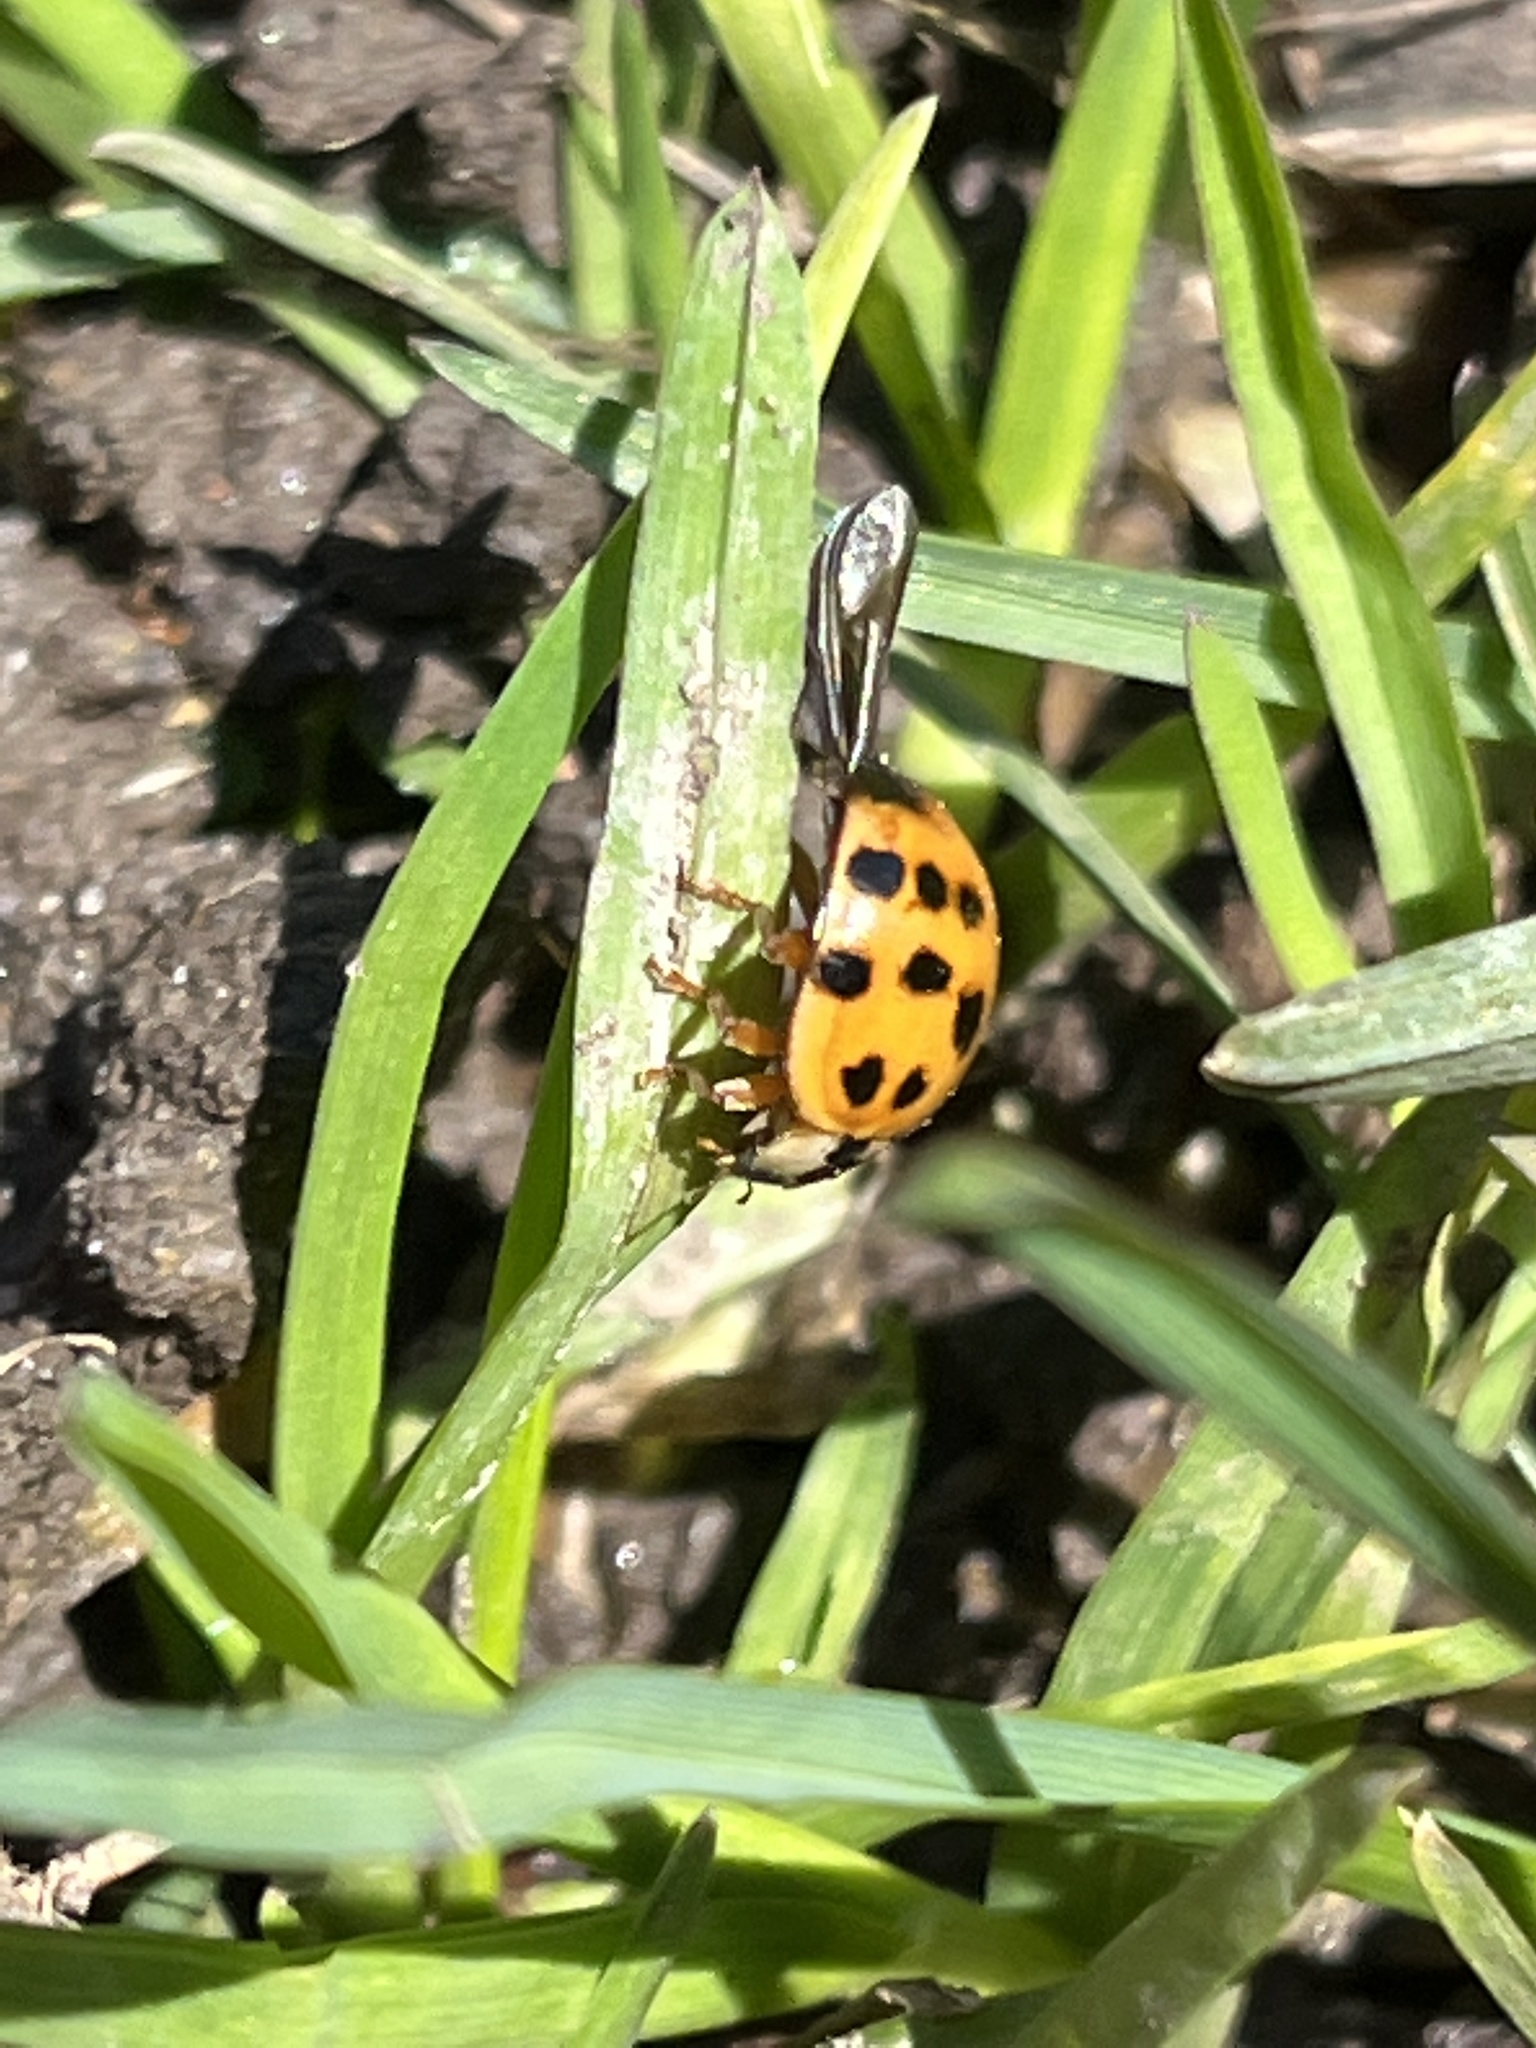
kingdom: Animalia
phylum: Arthropoda
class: Insecta
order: Coleoptera
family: Coccinellidae
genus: Harmonia
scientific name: Harmonia axyridis
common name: Harlequin ladybird
